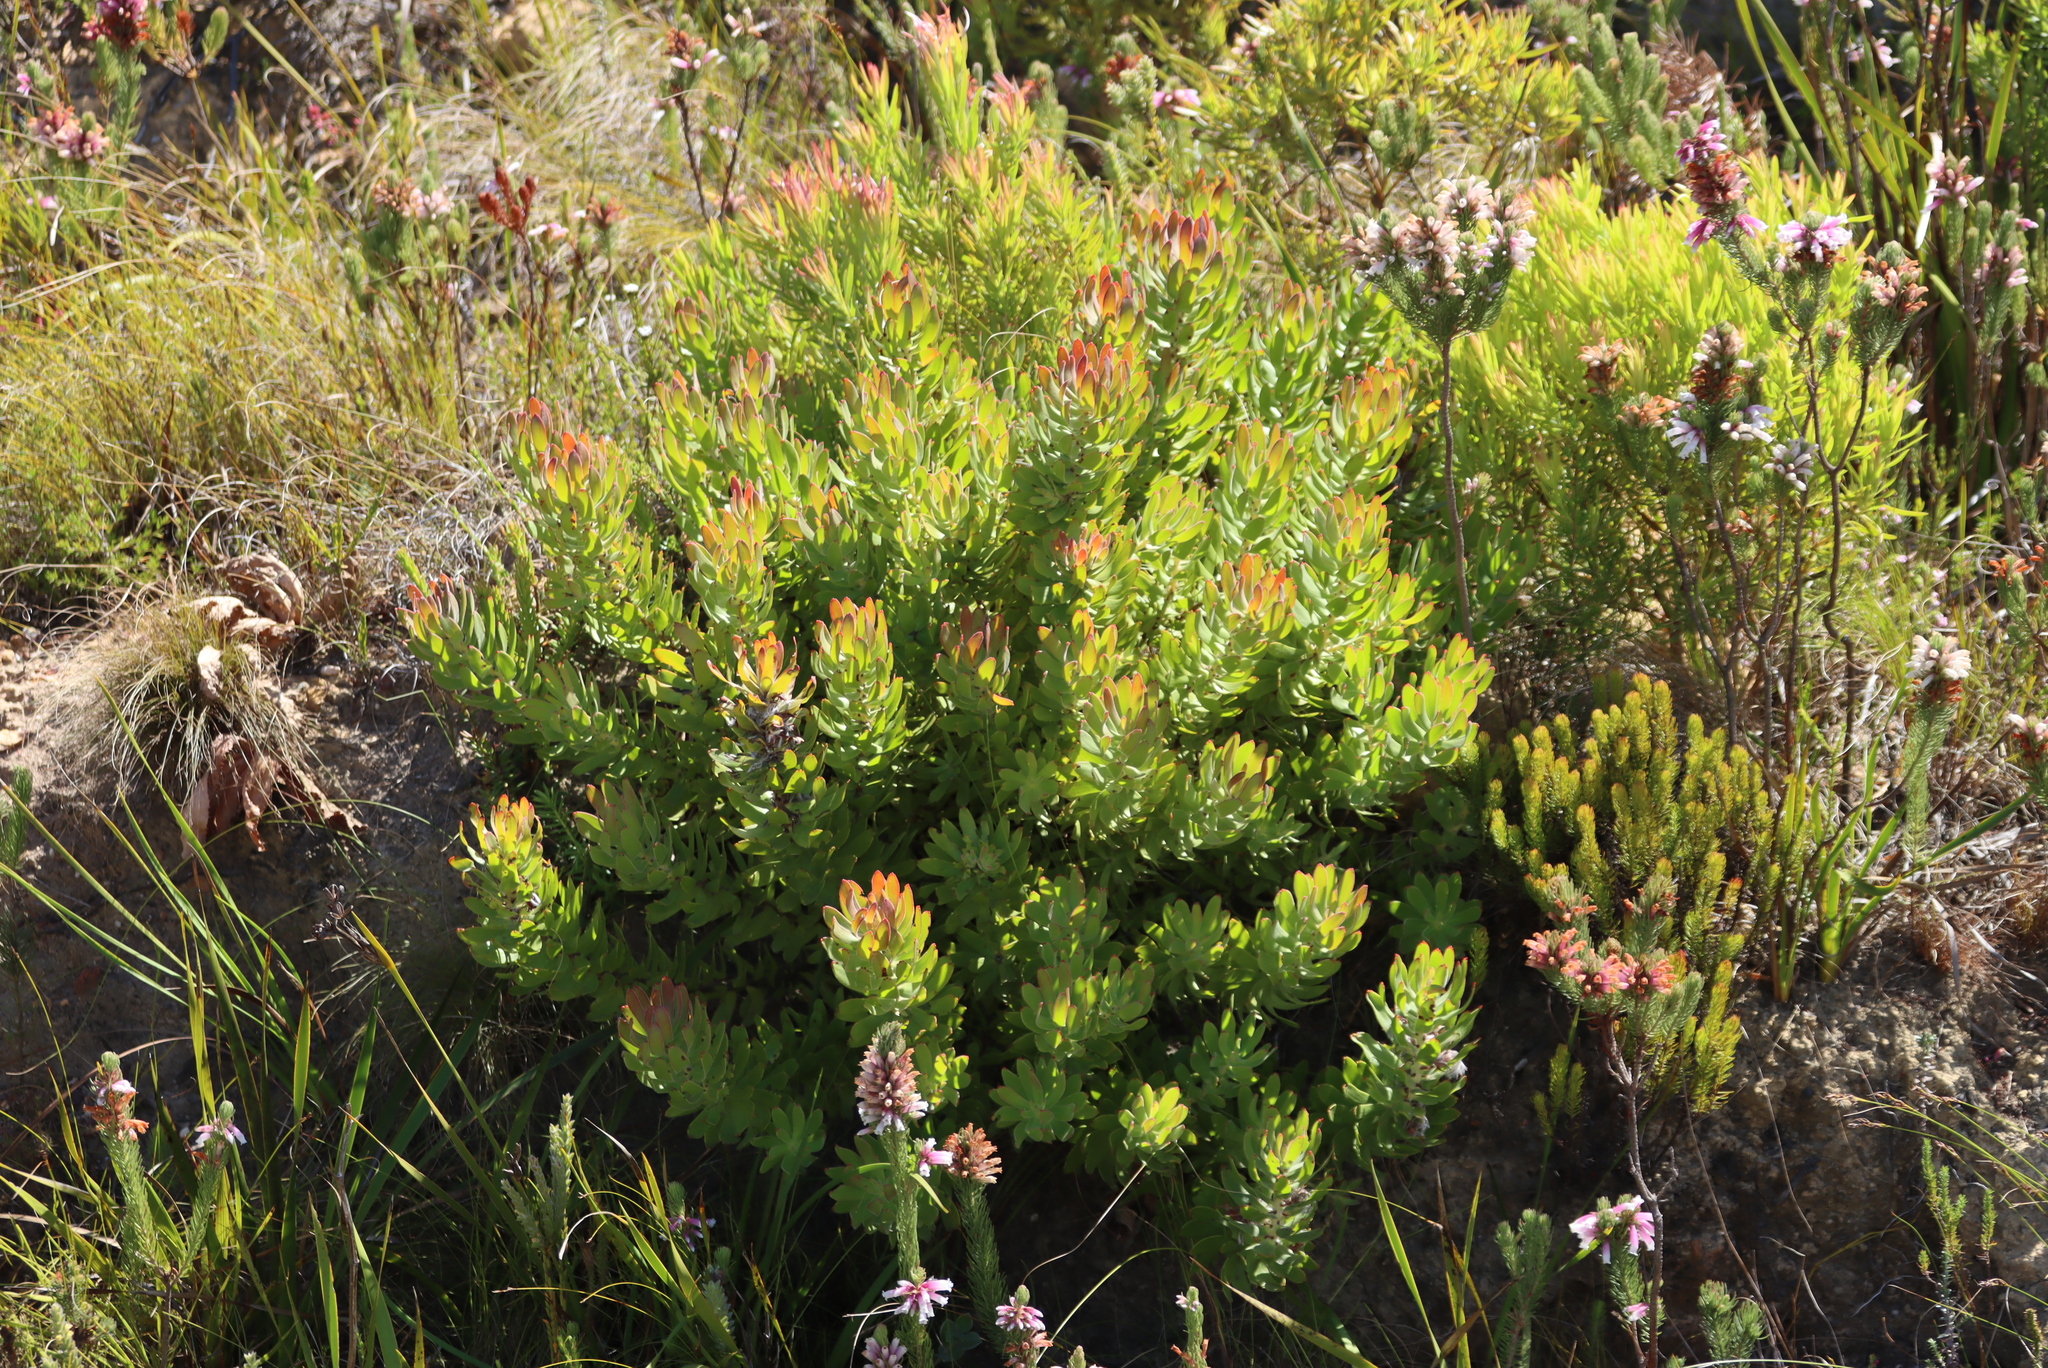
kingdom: Plantae
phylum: Tracheophyta
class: Magnoliopsida
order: Proteales
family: Proteaceae
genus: Mimetes
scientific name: Mimetes cucullatus
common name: Common pagoda
